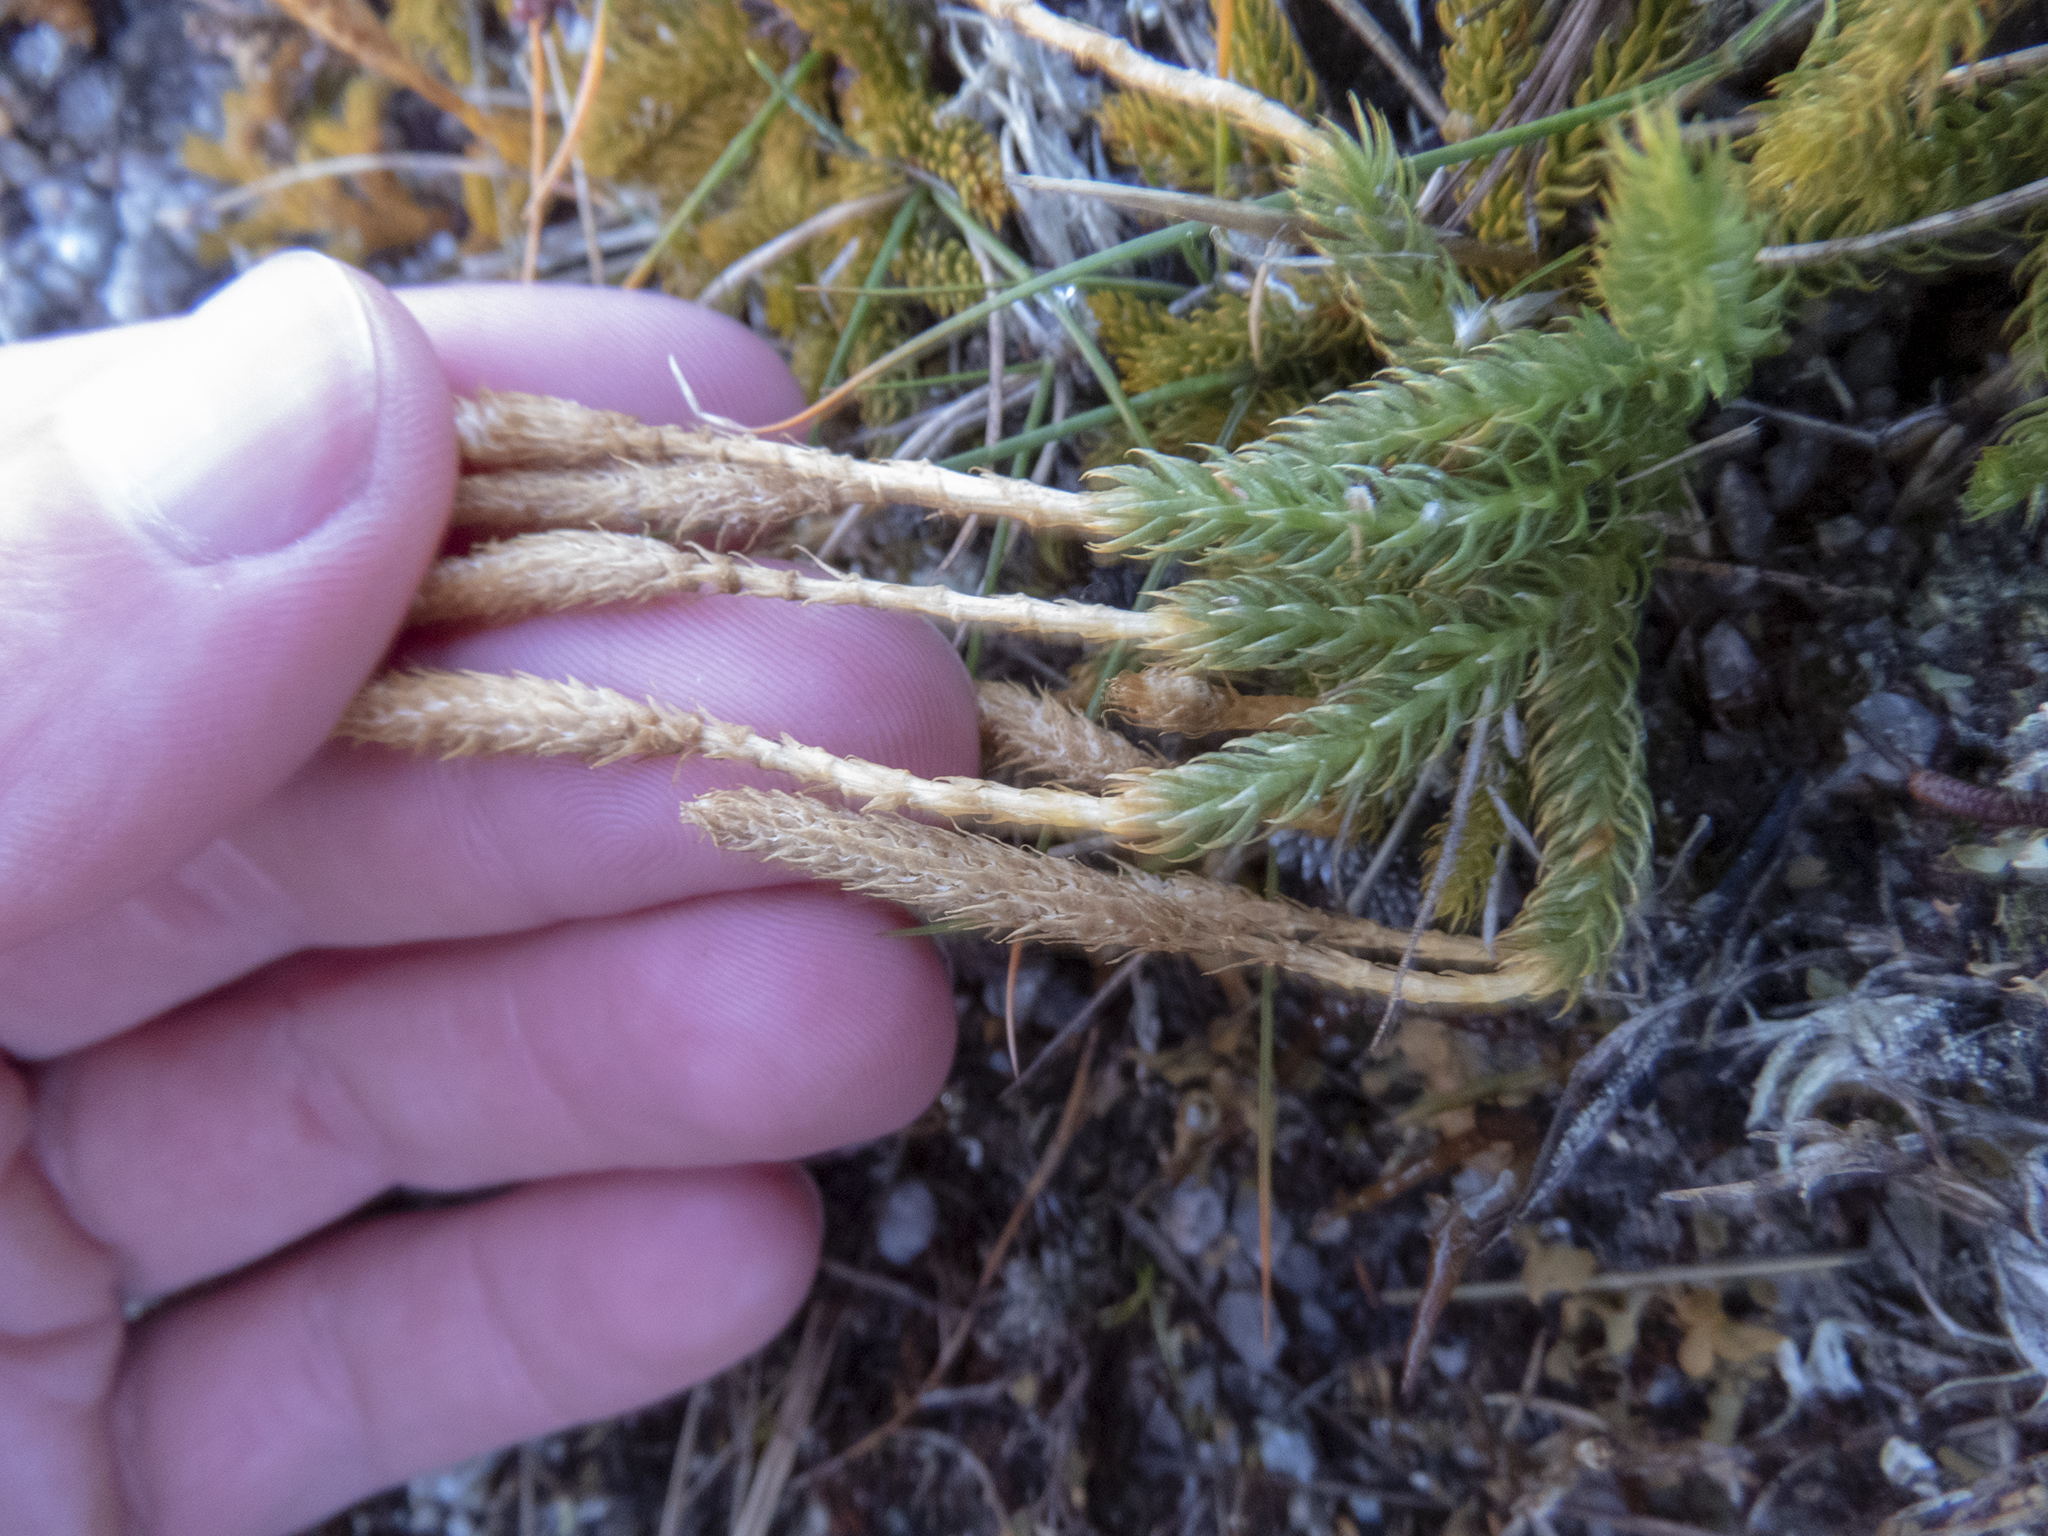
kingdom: Plantae
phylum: Tracheophyta
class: Lycopodiopsida
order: Lycopodiales
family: Lycopodiaceae
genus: Austrolycopodium
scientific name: Austrolycopodium fastigiatum
